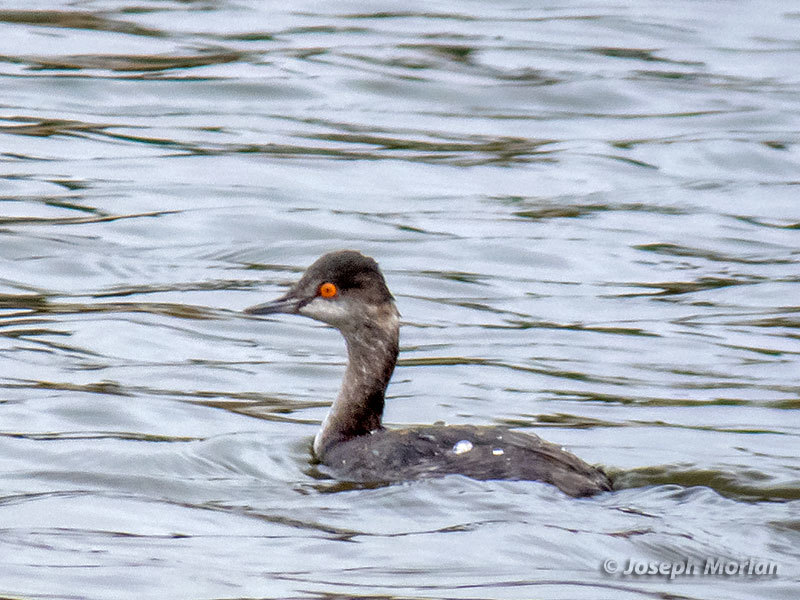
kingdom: Animalia
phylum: Chordata
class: Aves
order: Podicipediformes
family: Podicipedidae
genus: Podiceps
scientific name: Podiceps nigricollis
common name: Black-necked grebe
